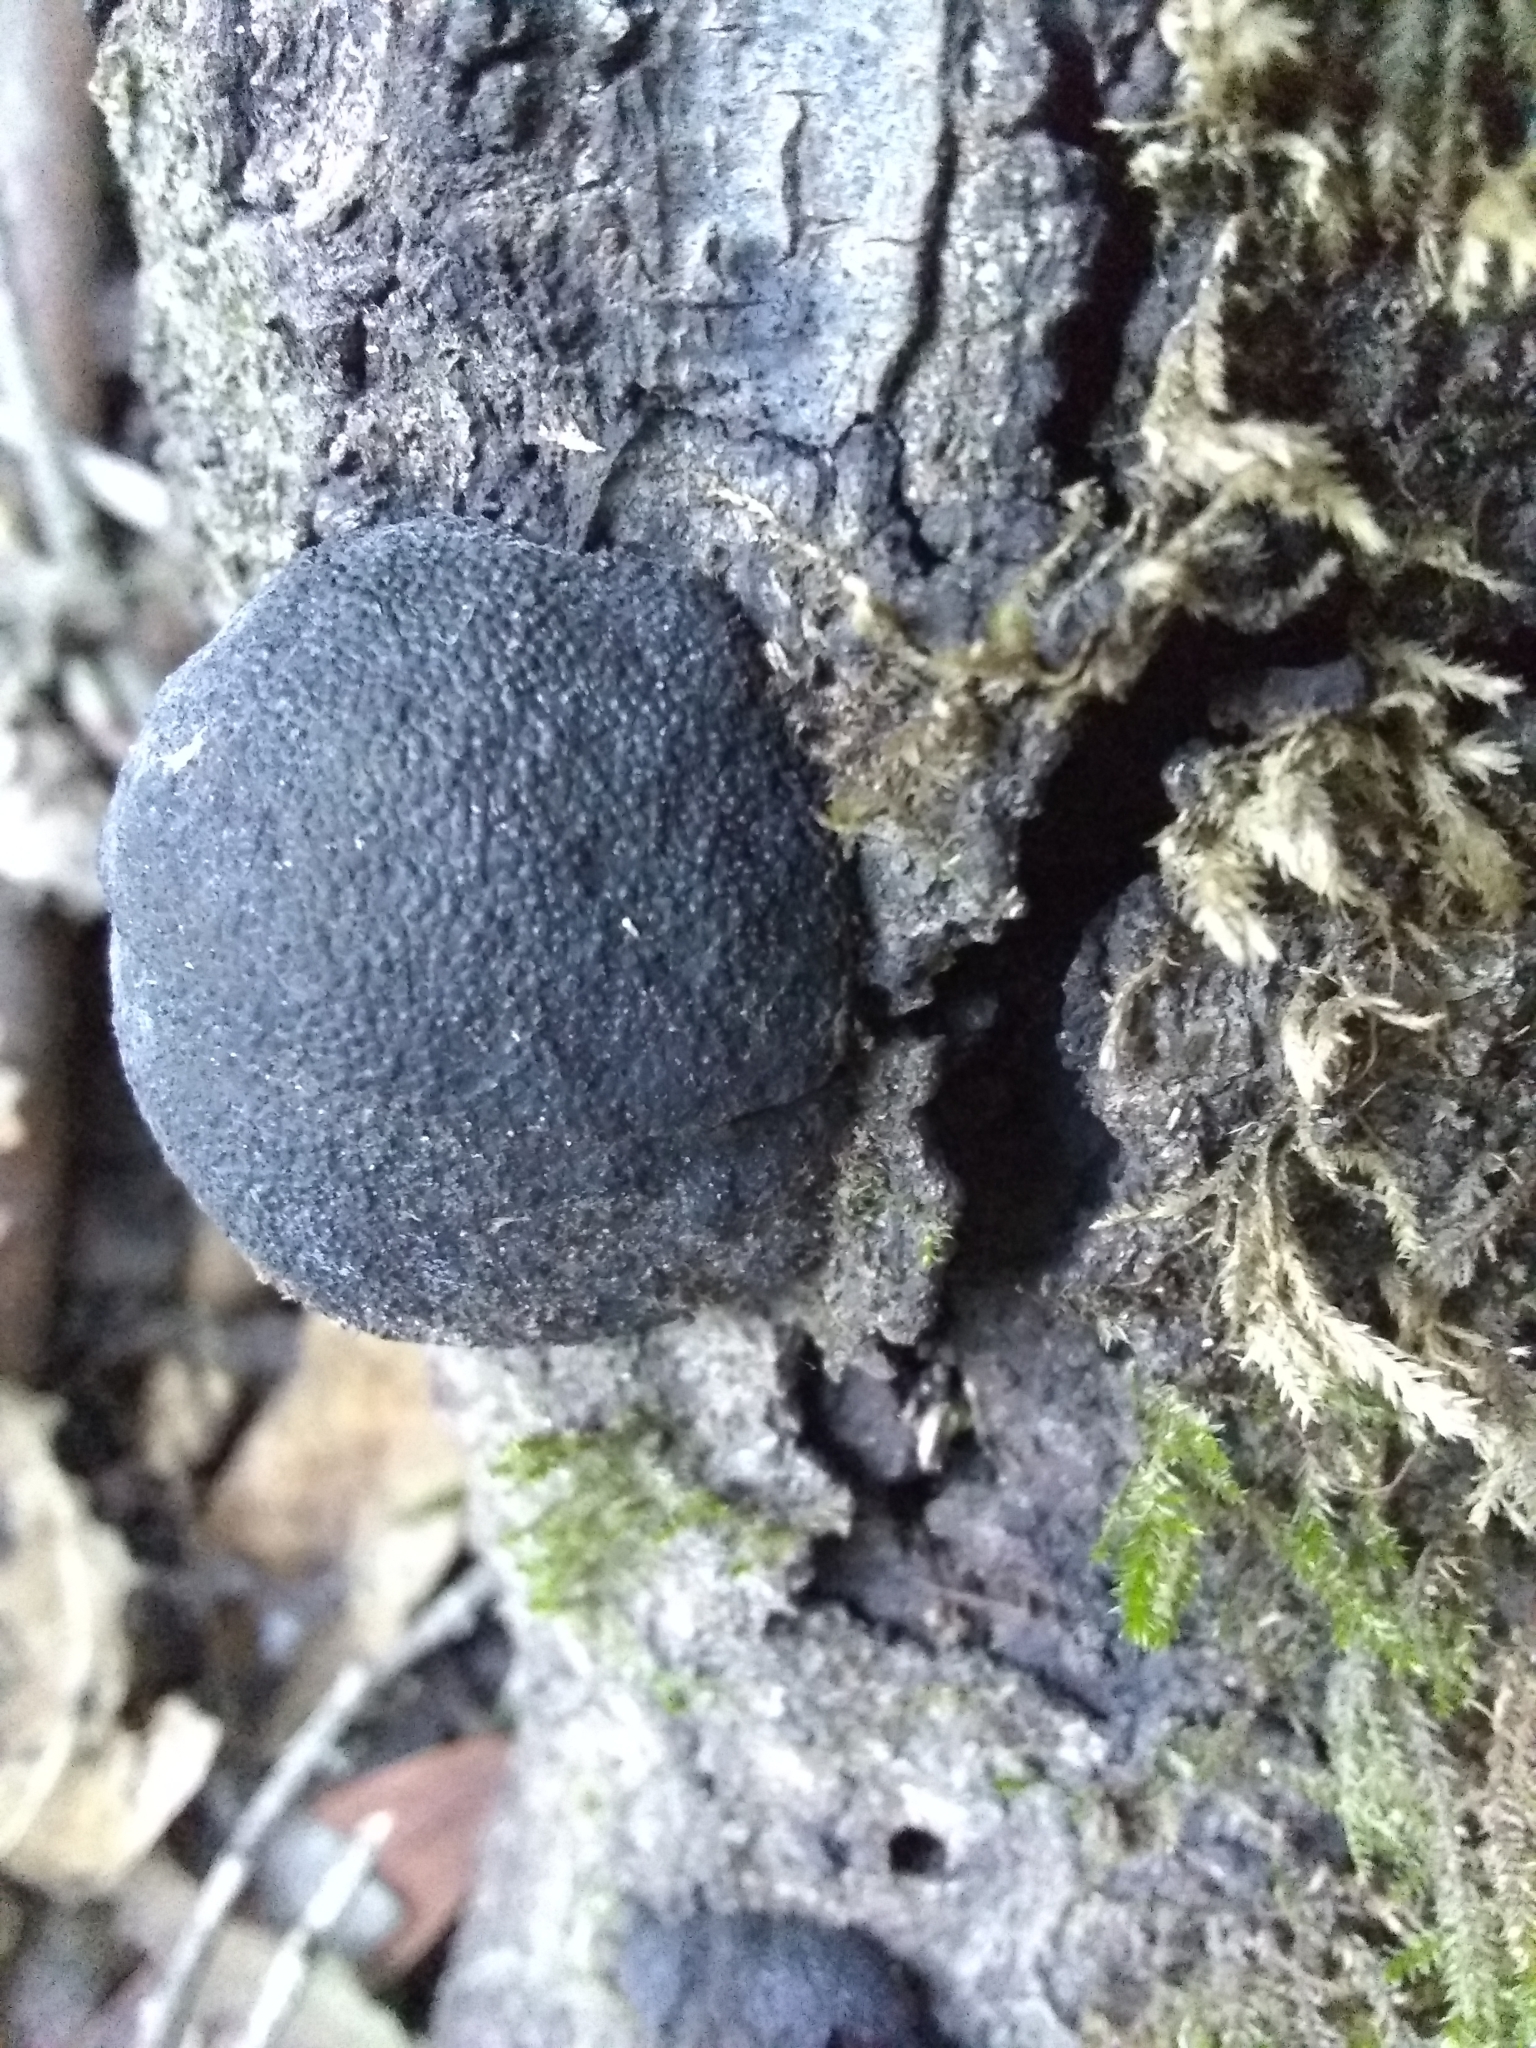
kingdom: Fungi
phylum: Ascomycota
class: Sordariomycetes
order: Xylariales
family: Hypoxylaceae
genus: Annulohypoxylon
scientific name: Annulohypoxylon thouarsianum
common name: Cramp balls
